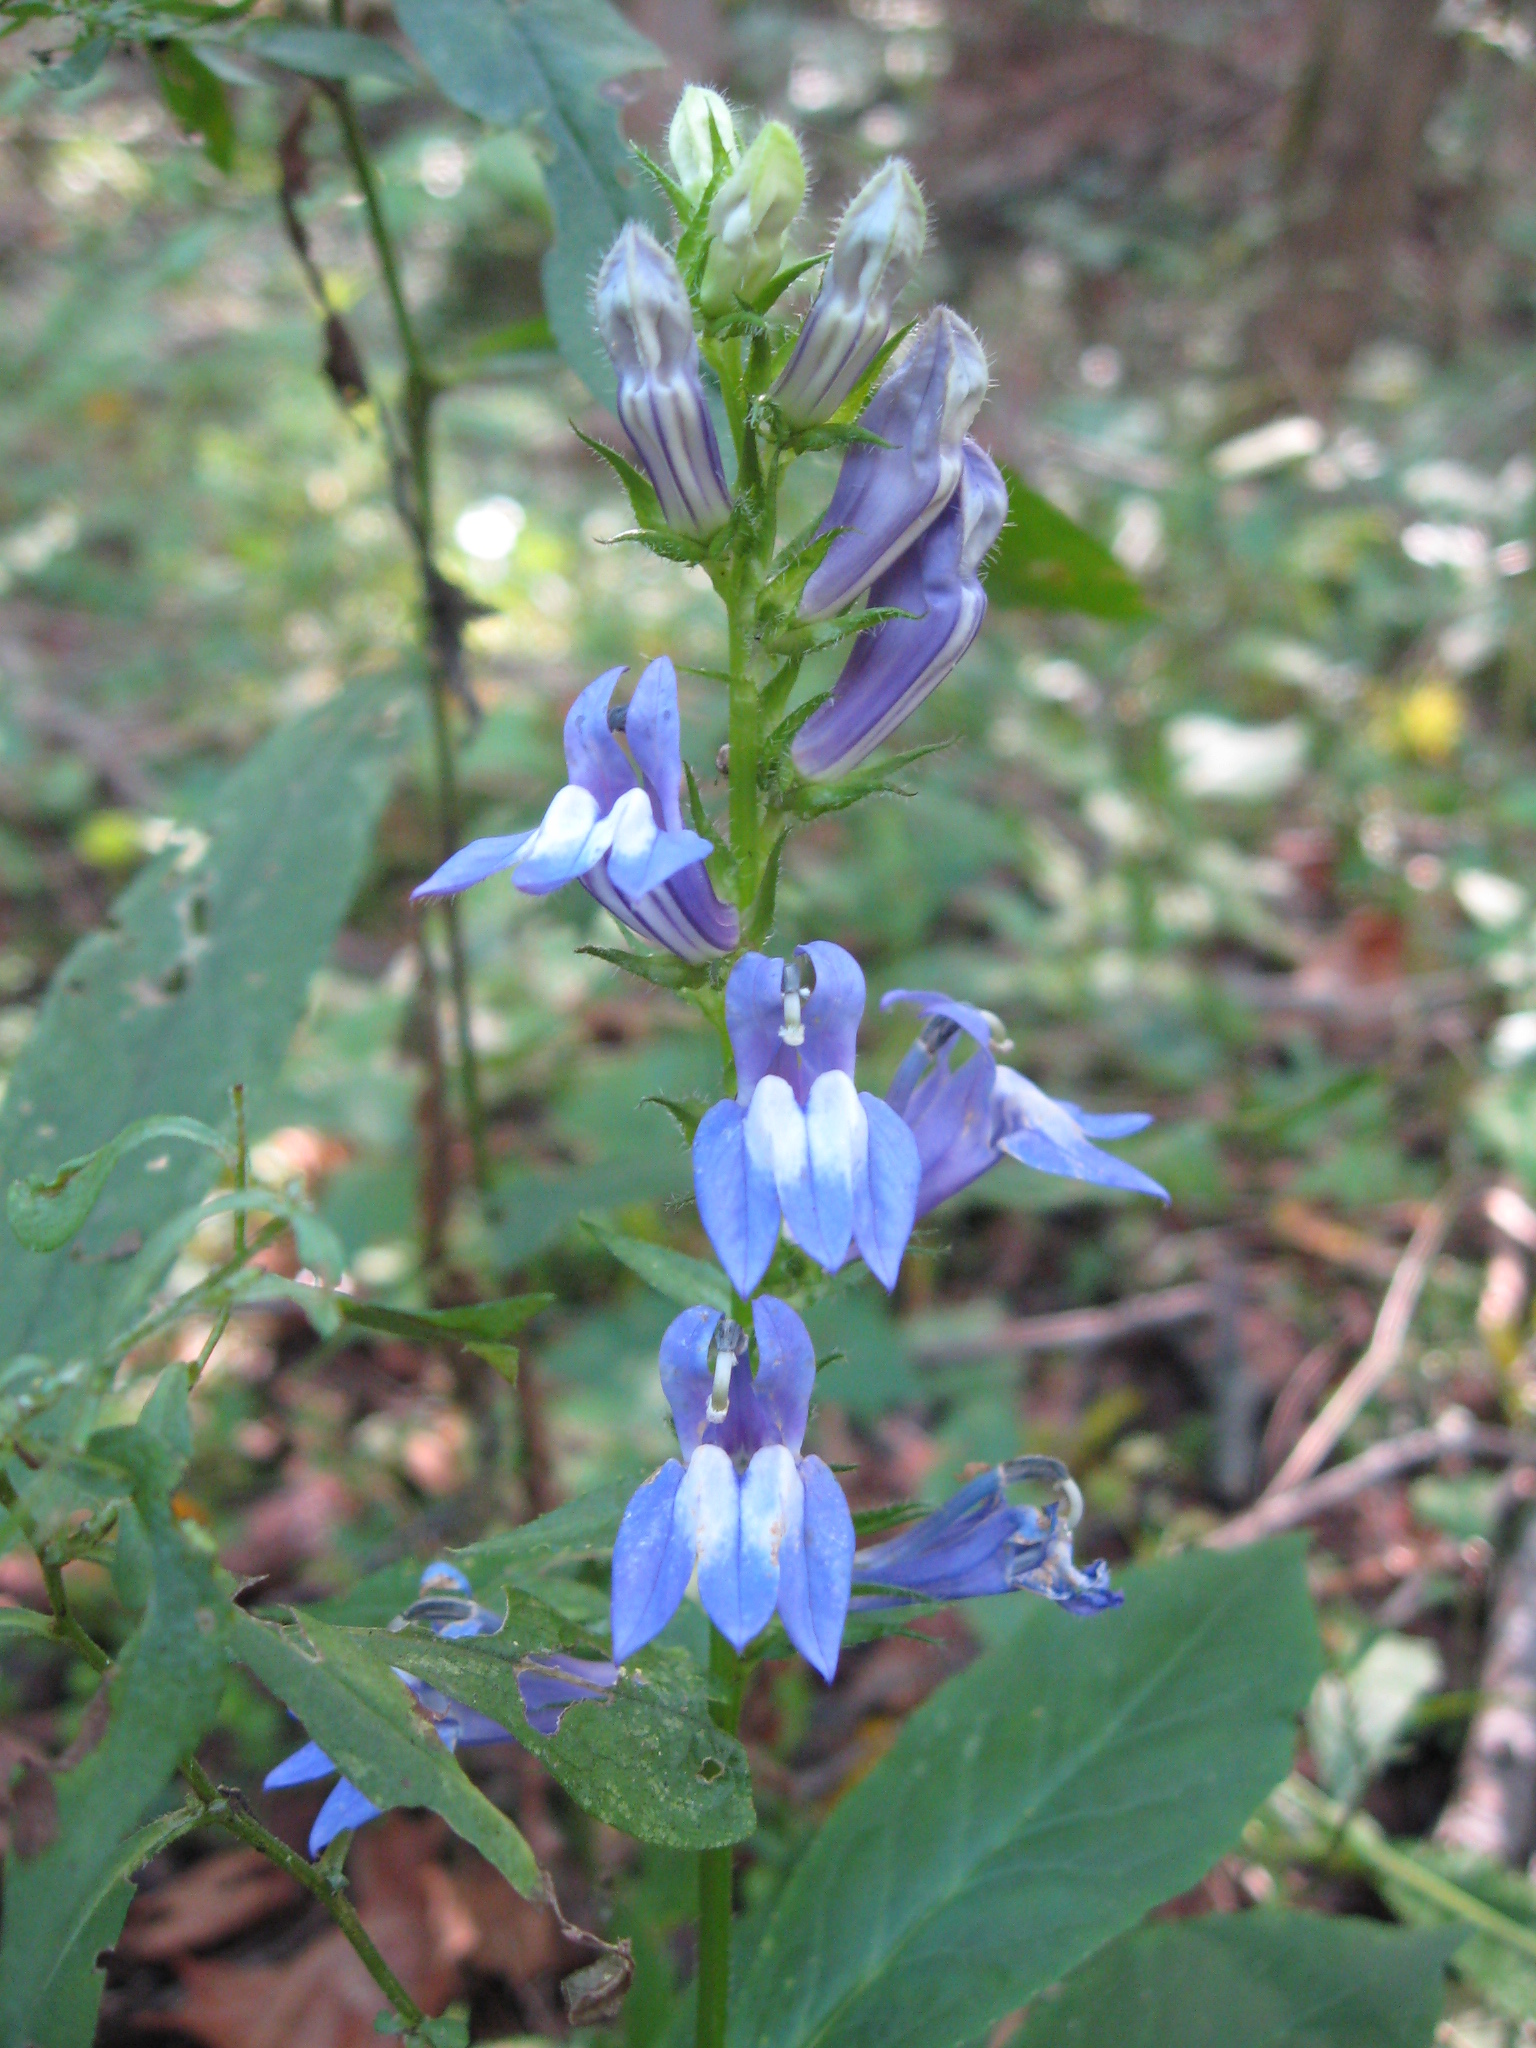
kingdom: Plantae
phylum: Tracheophyta
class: Magnoliopsida
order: Asterales
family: Campanulaceae
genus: Lobelia
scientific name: Lobelia siphilitica
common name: Great lobelia
